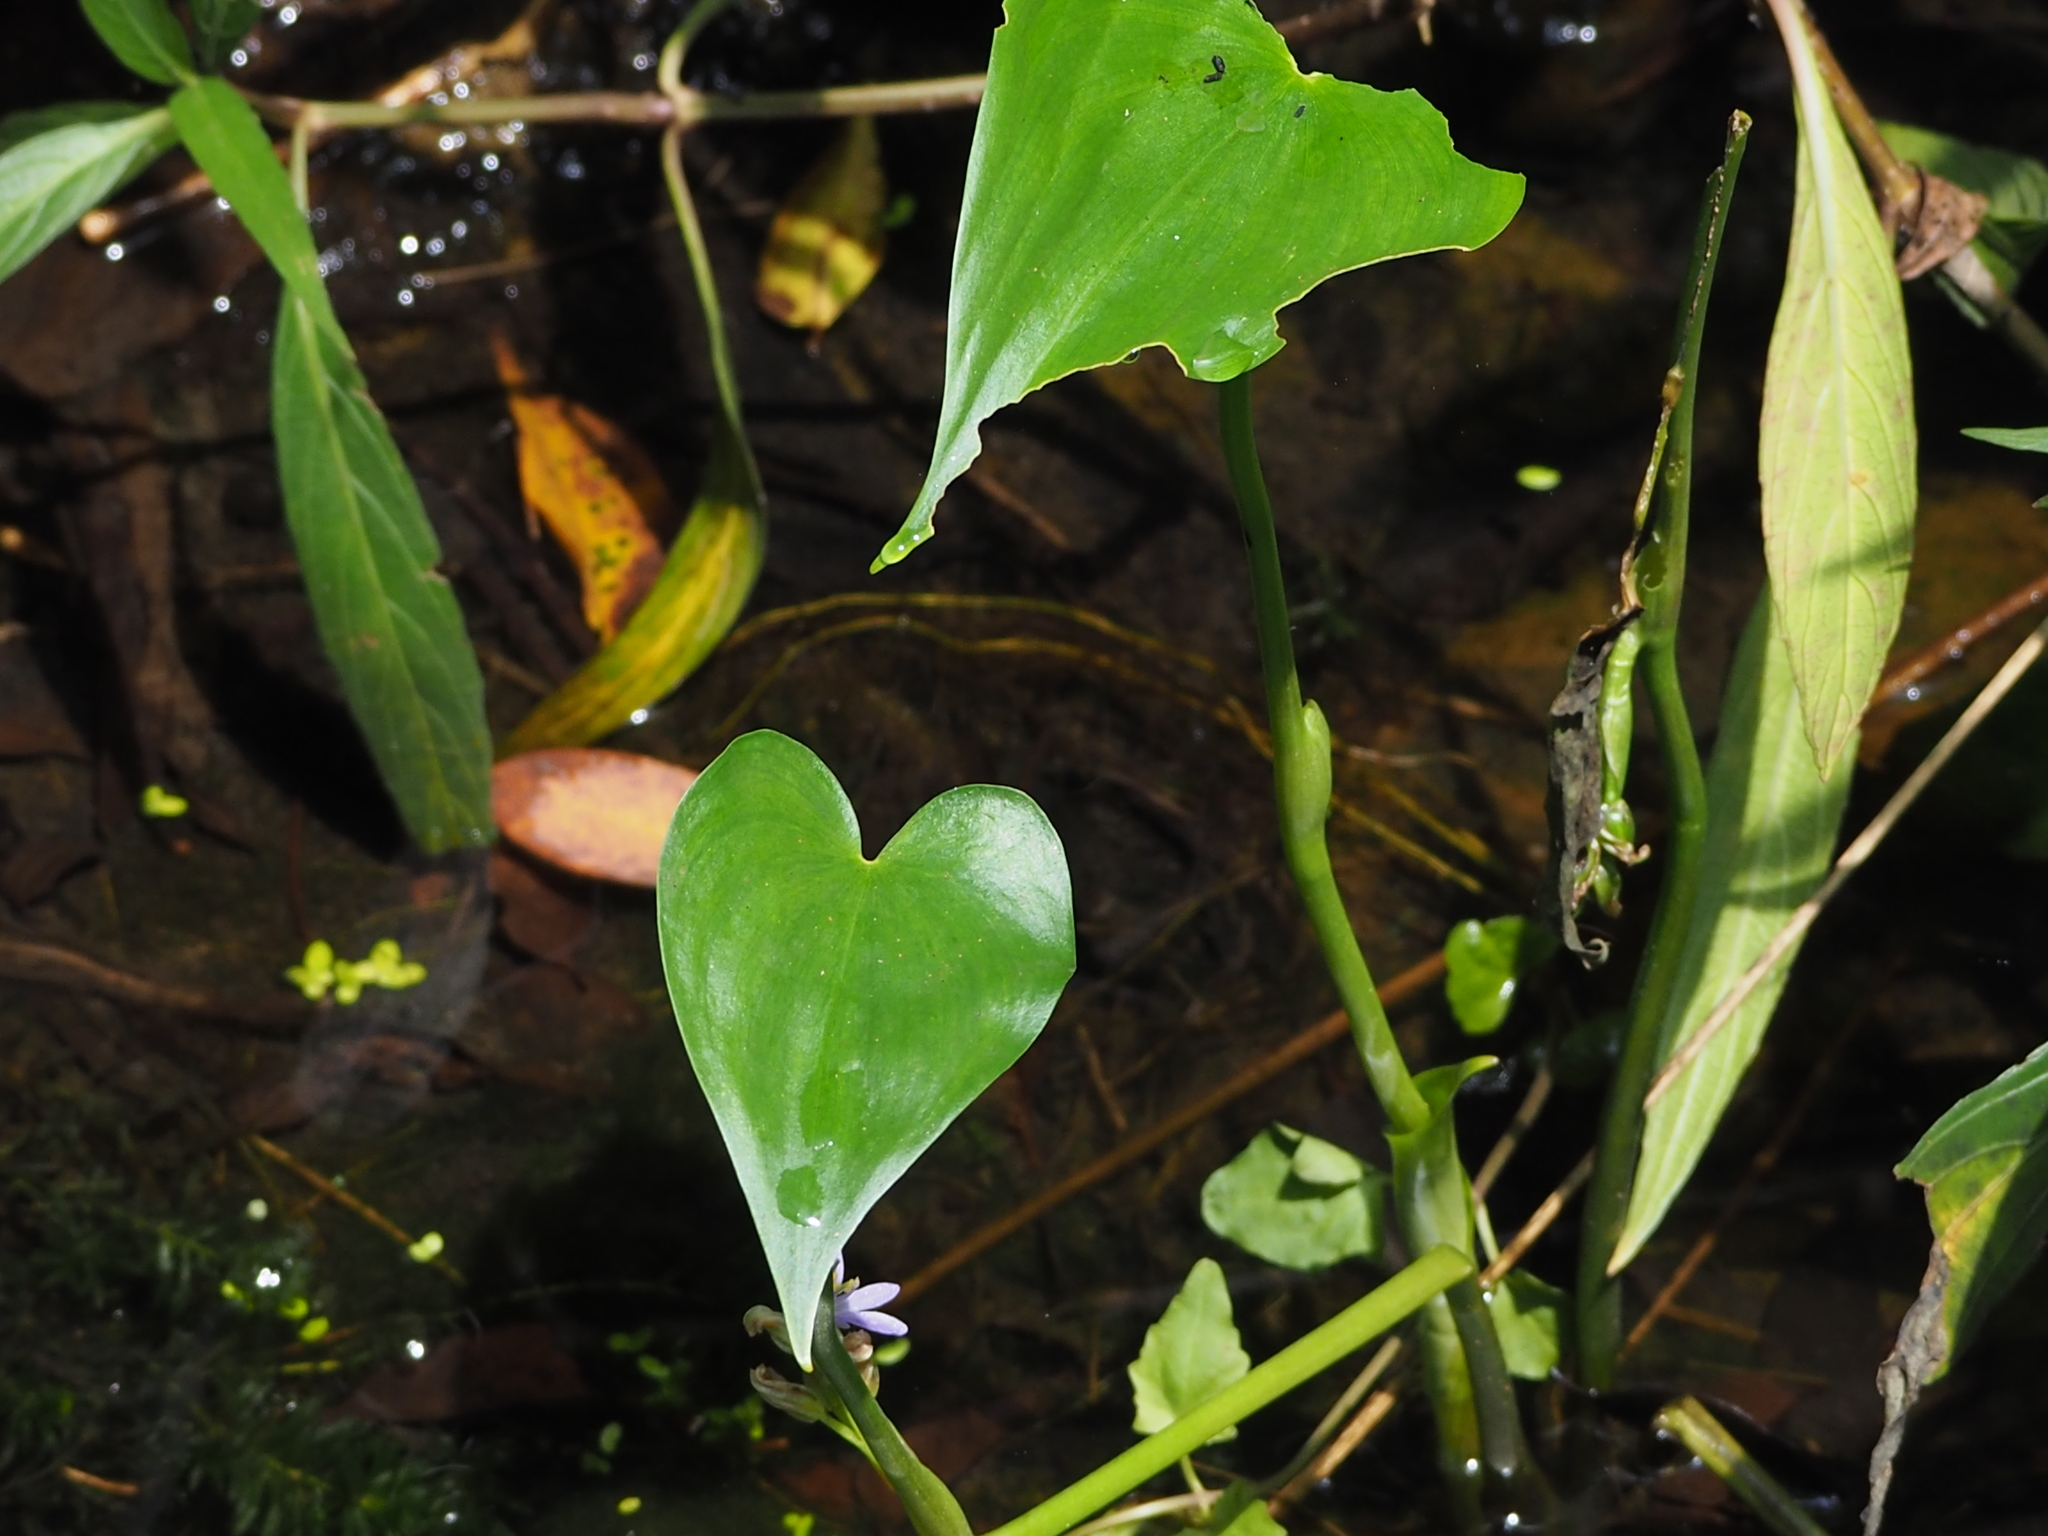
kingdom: Plantae
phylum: Tracheophyta
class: Liliopsida
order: Commelinales
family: Pontederiaceae
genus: Pontederia
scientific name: Pontederia vaginalis
